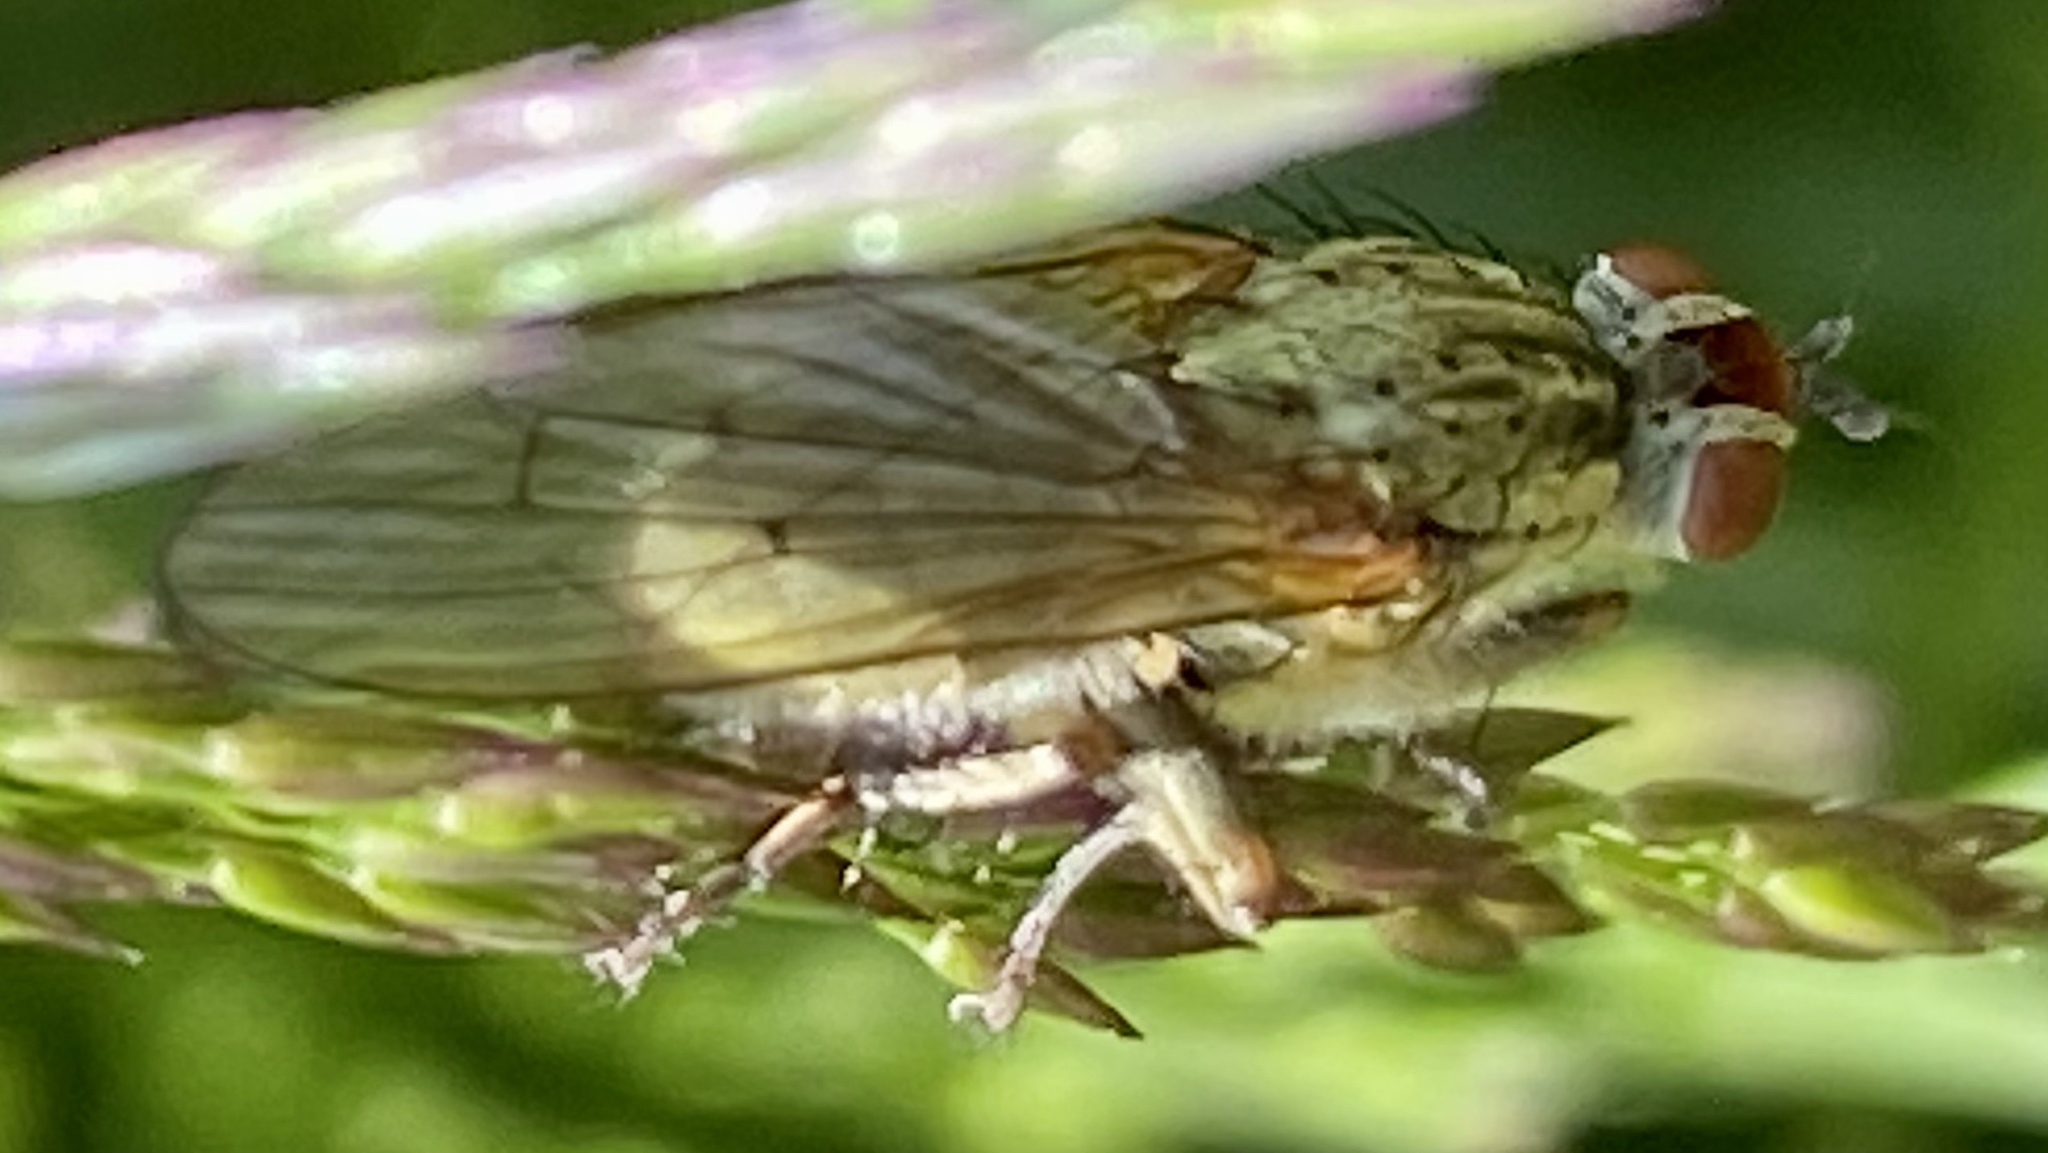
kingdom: Animalia
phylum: Arthropoda
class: Insecta
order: Diptera
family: Scathophagidae
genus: Scathophaga
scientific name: Scathophaga stercoraria
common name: Yellow dung fly
